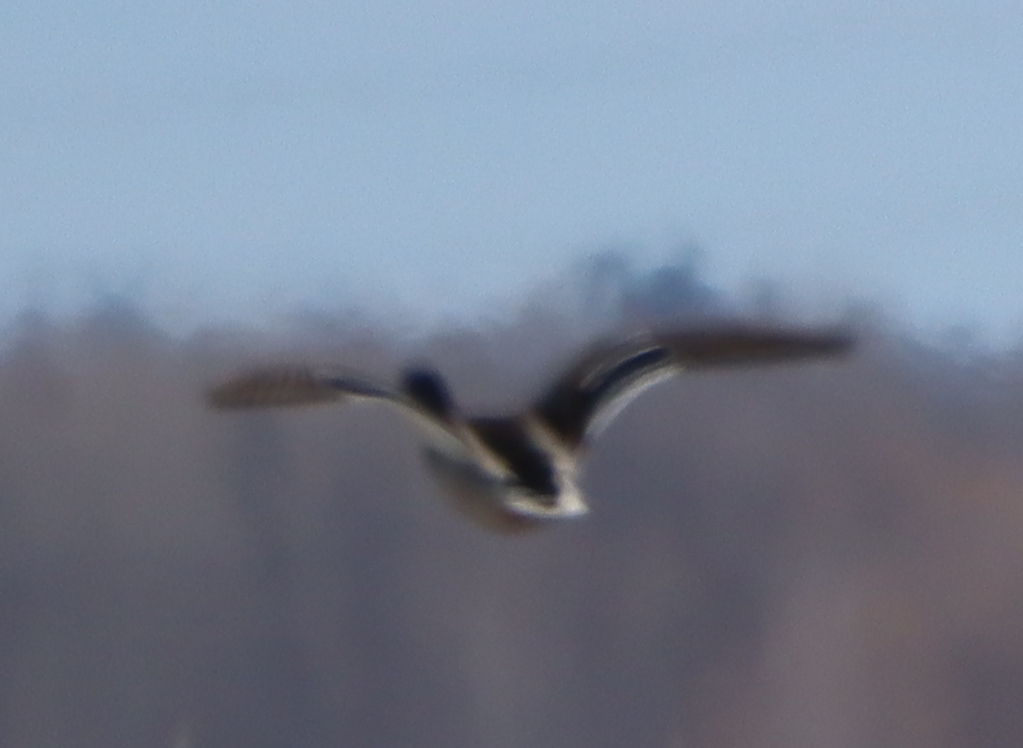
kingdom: Animalia
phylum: Chordata
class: Aves
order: Anseriformes
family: Anatidae
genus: Anas
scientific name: Anas platyrhynchos
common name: Mallard
